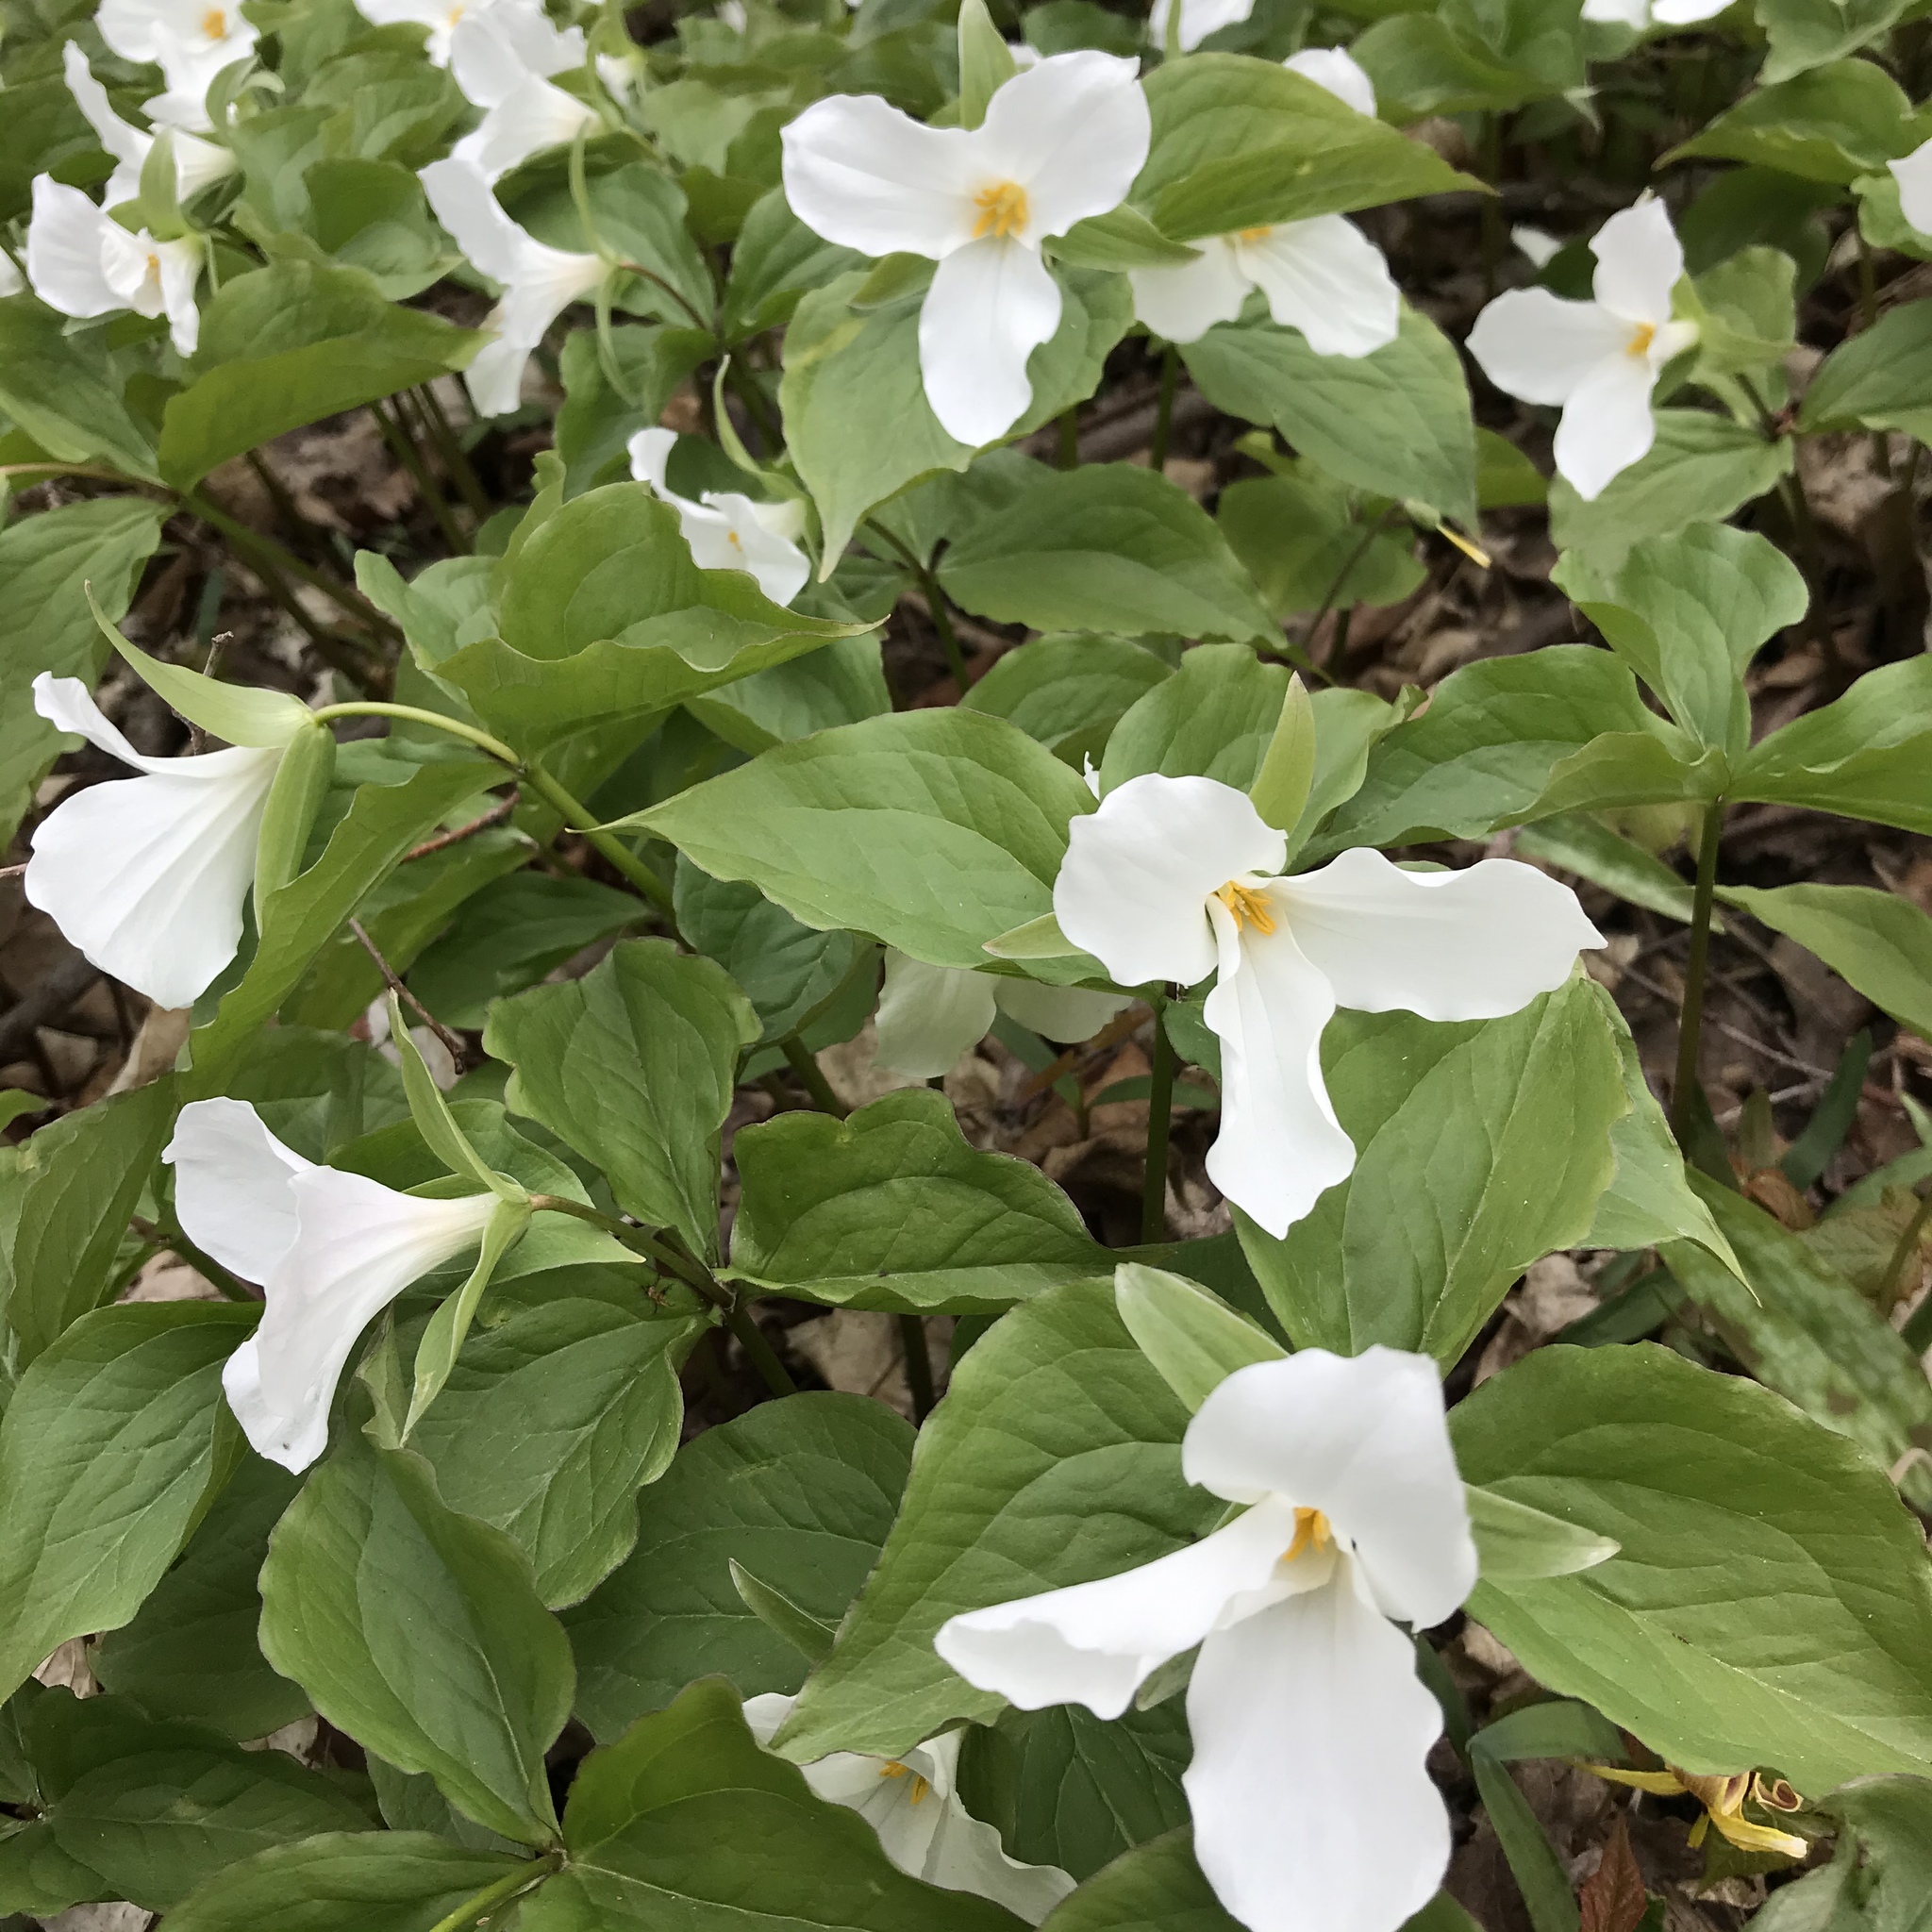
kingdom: Plantae
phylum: Tracheophyta
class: Liliopsida
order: Liliales
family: Melanthiaceae
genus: Trillium
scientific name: Trillium grandiflorum
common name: Great white trillium
